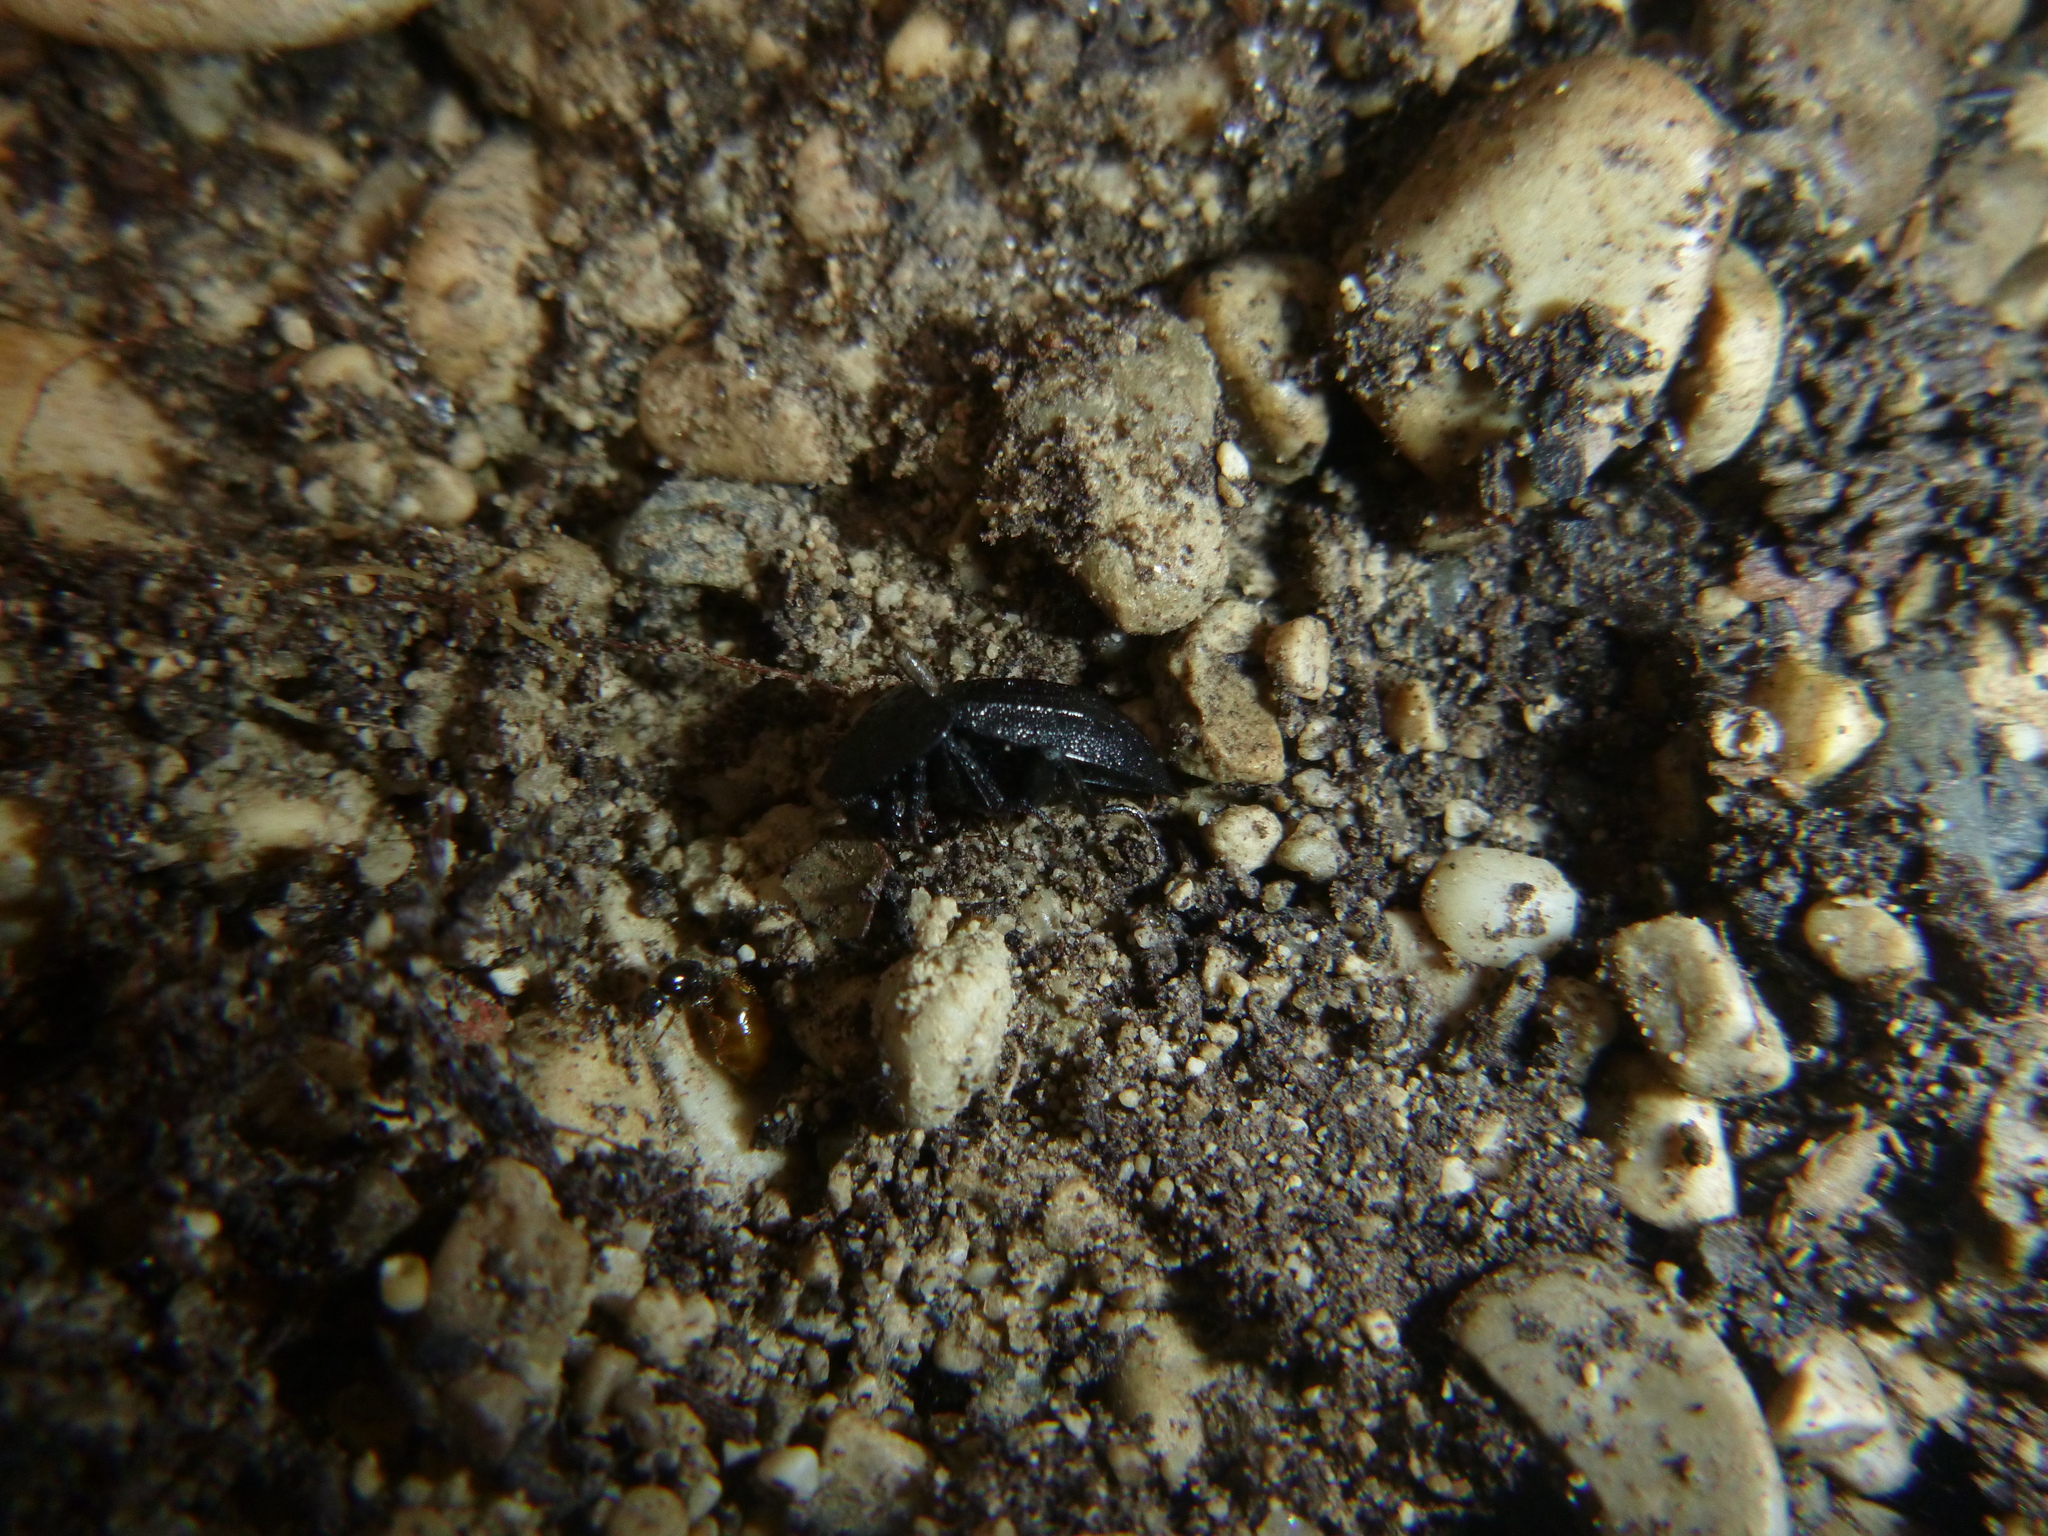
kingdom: Animalia
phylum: Arthropoda
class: Insecta
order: Coleoptera
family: Staphylinidae
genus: Silpha
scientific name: Silpha atrata
